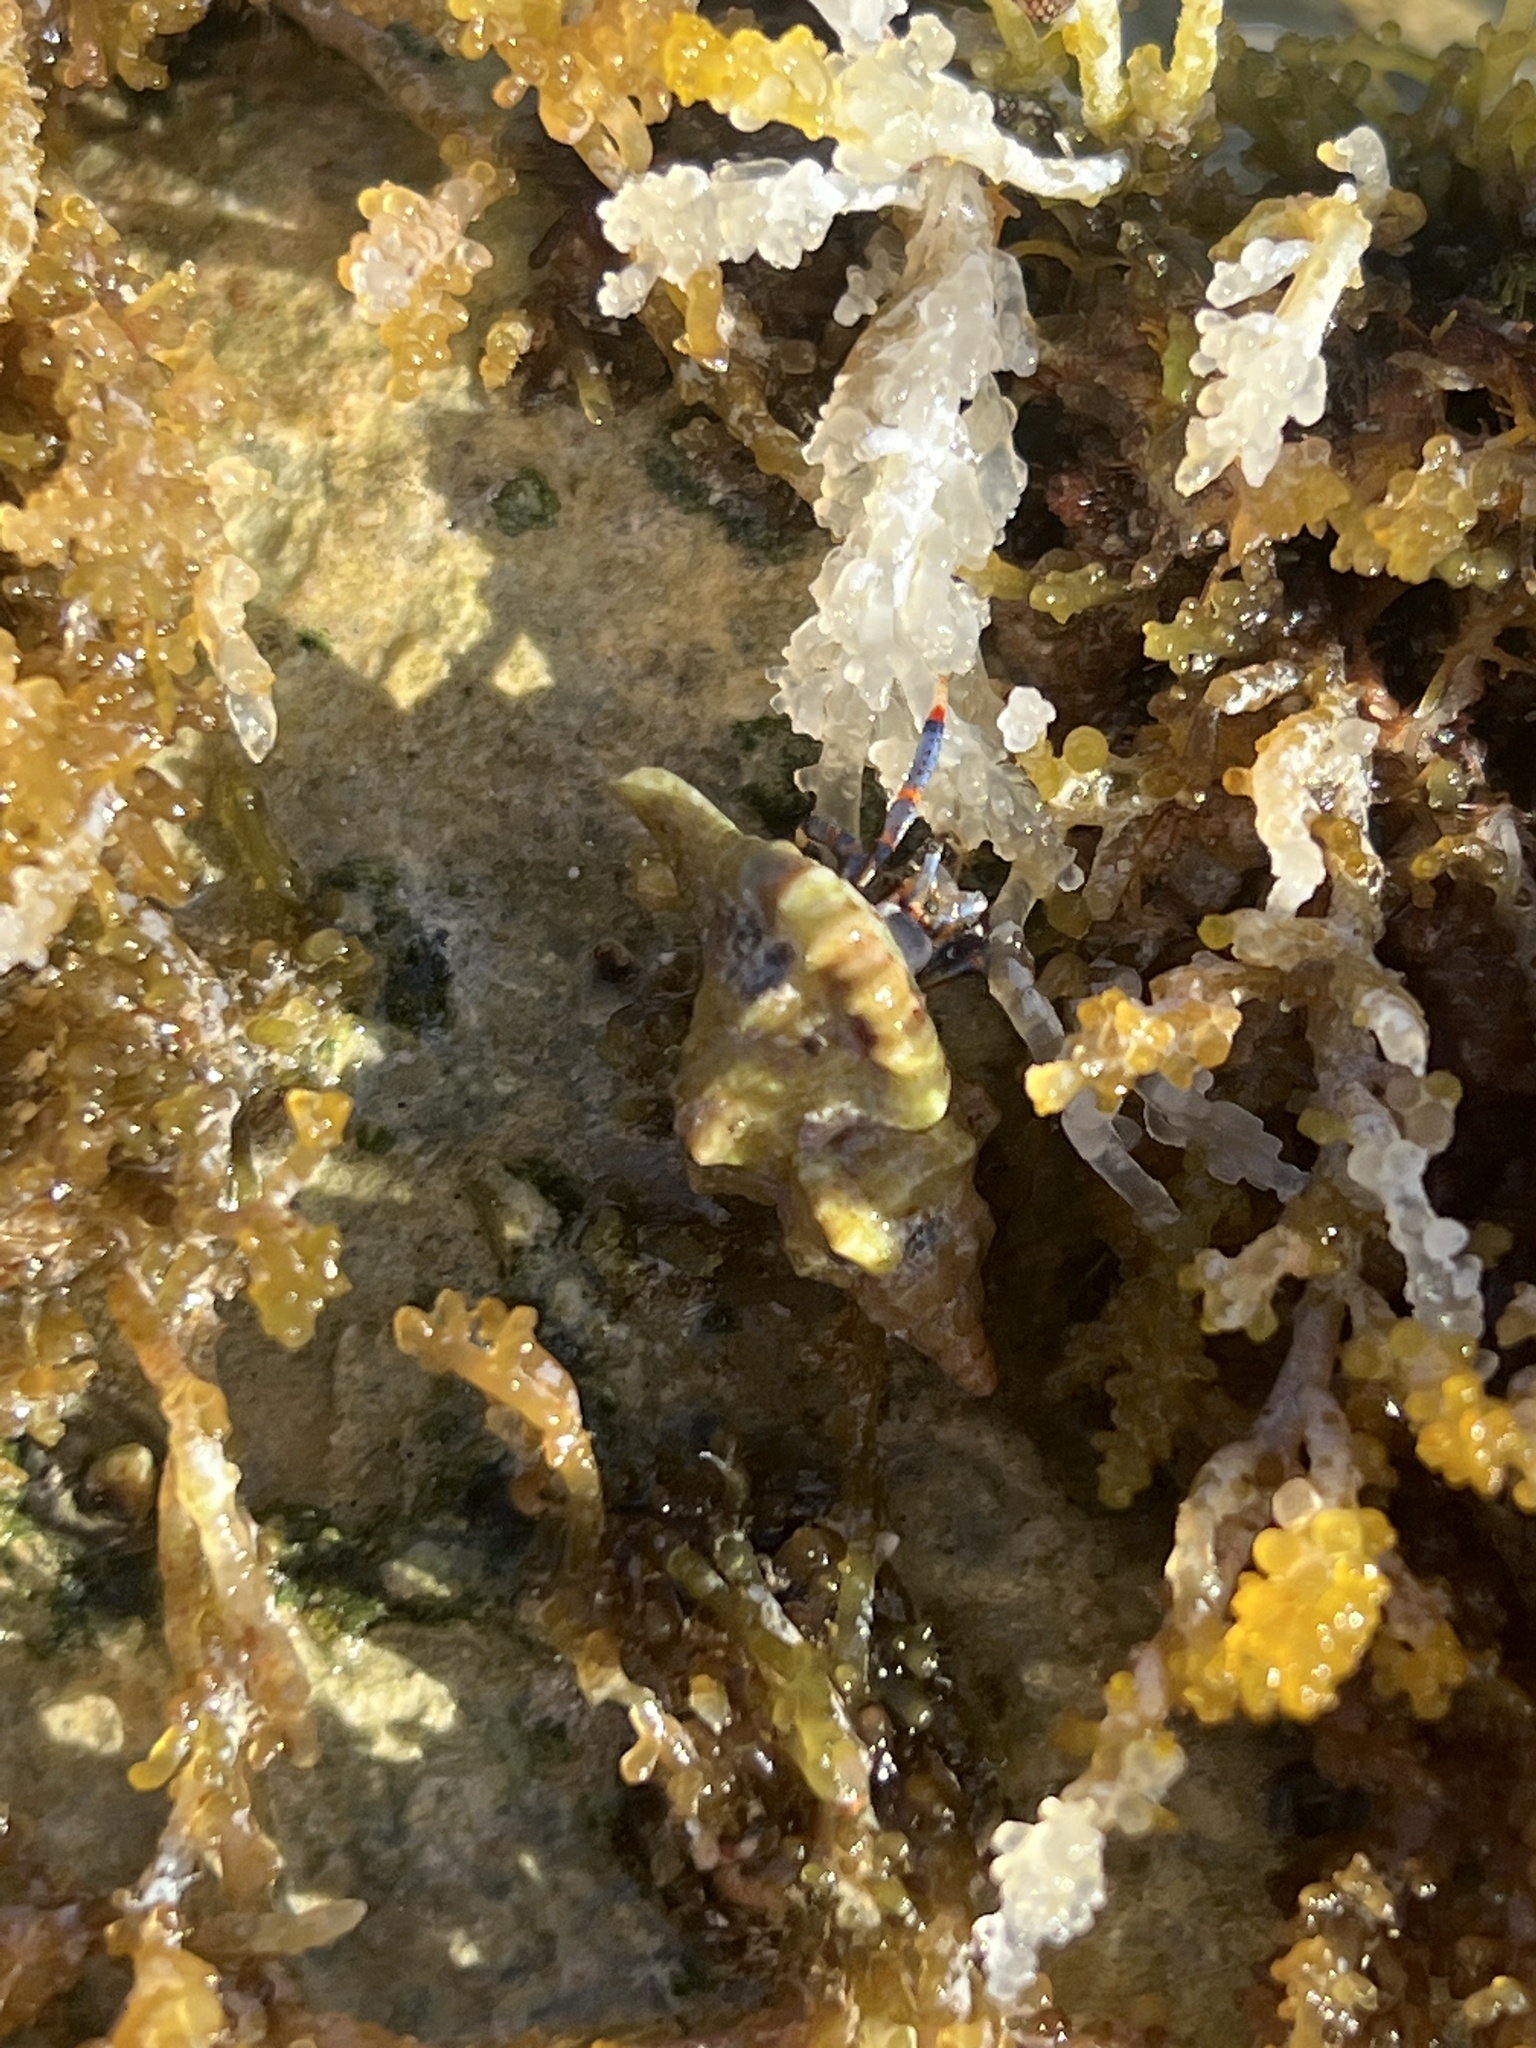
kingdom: Animalia
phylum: Arthropoda
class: Malacostraca
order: Decapoda
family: Diogenidae
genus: Clibanarius
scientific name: Clibanarius tricolor
